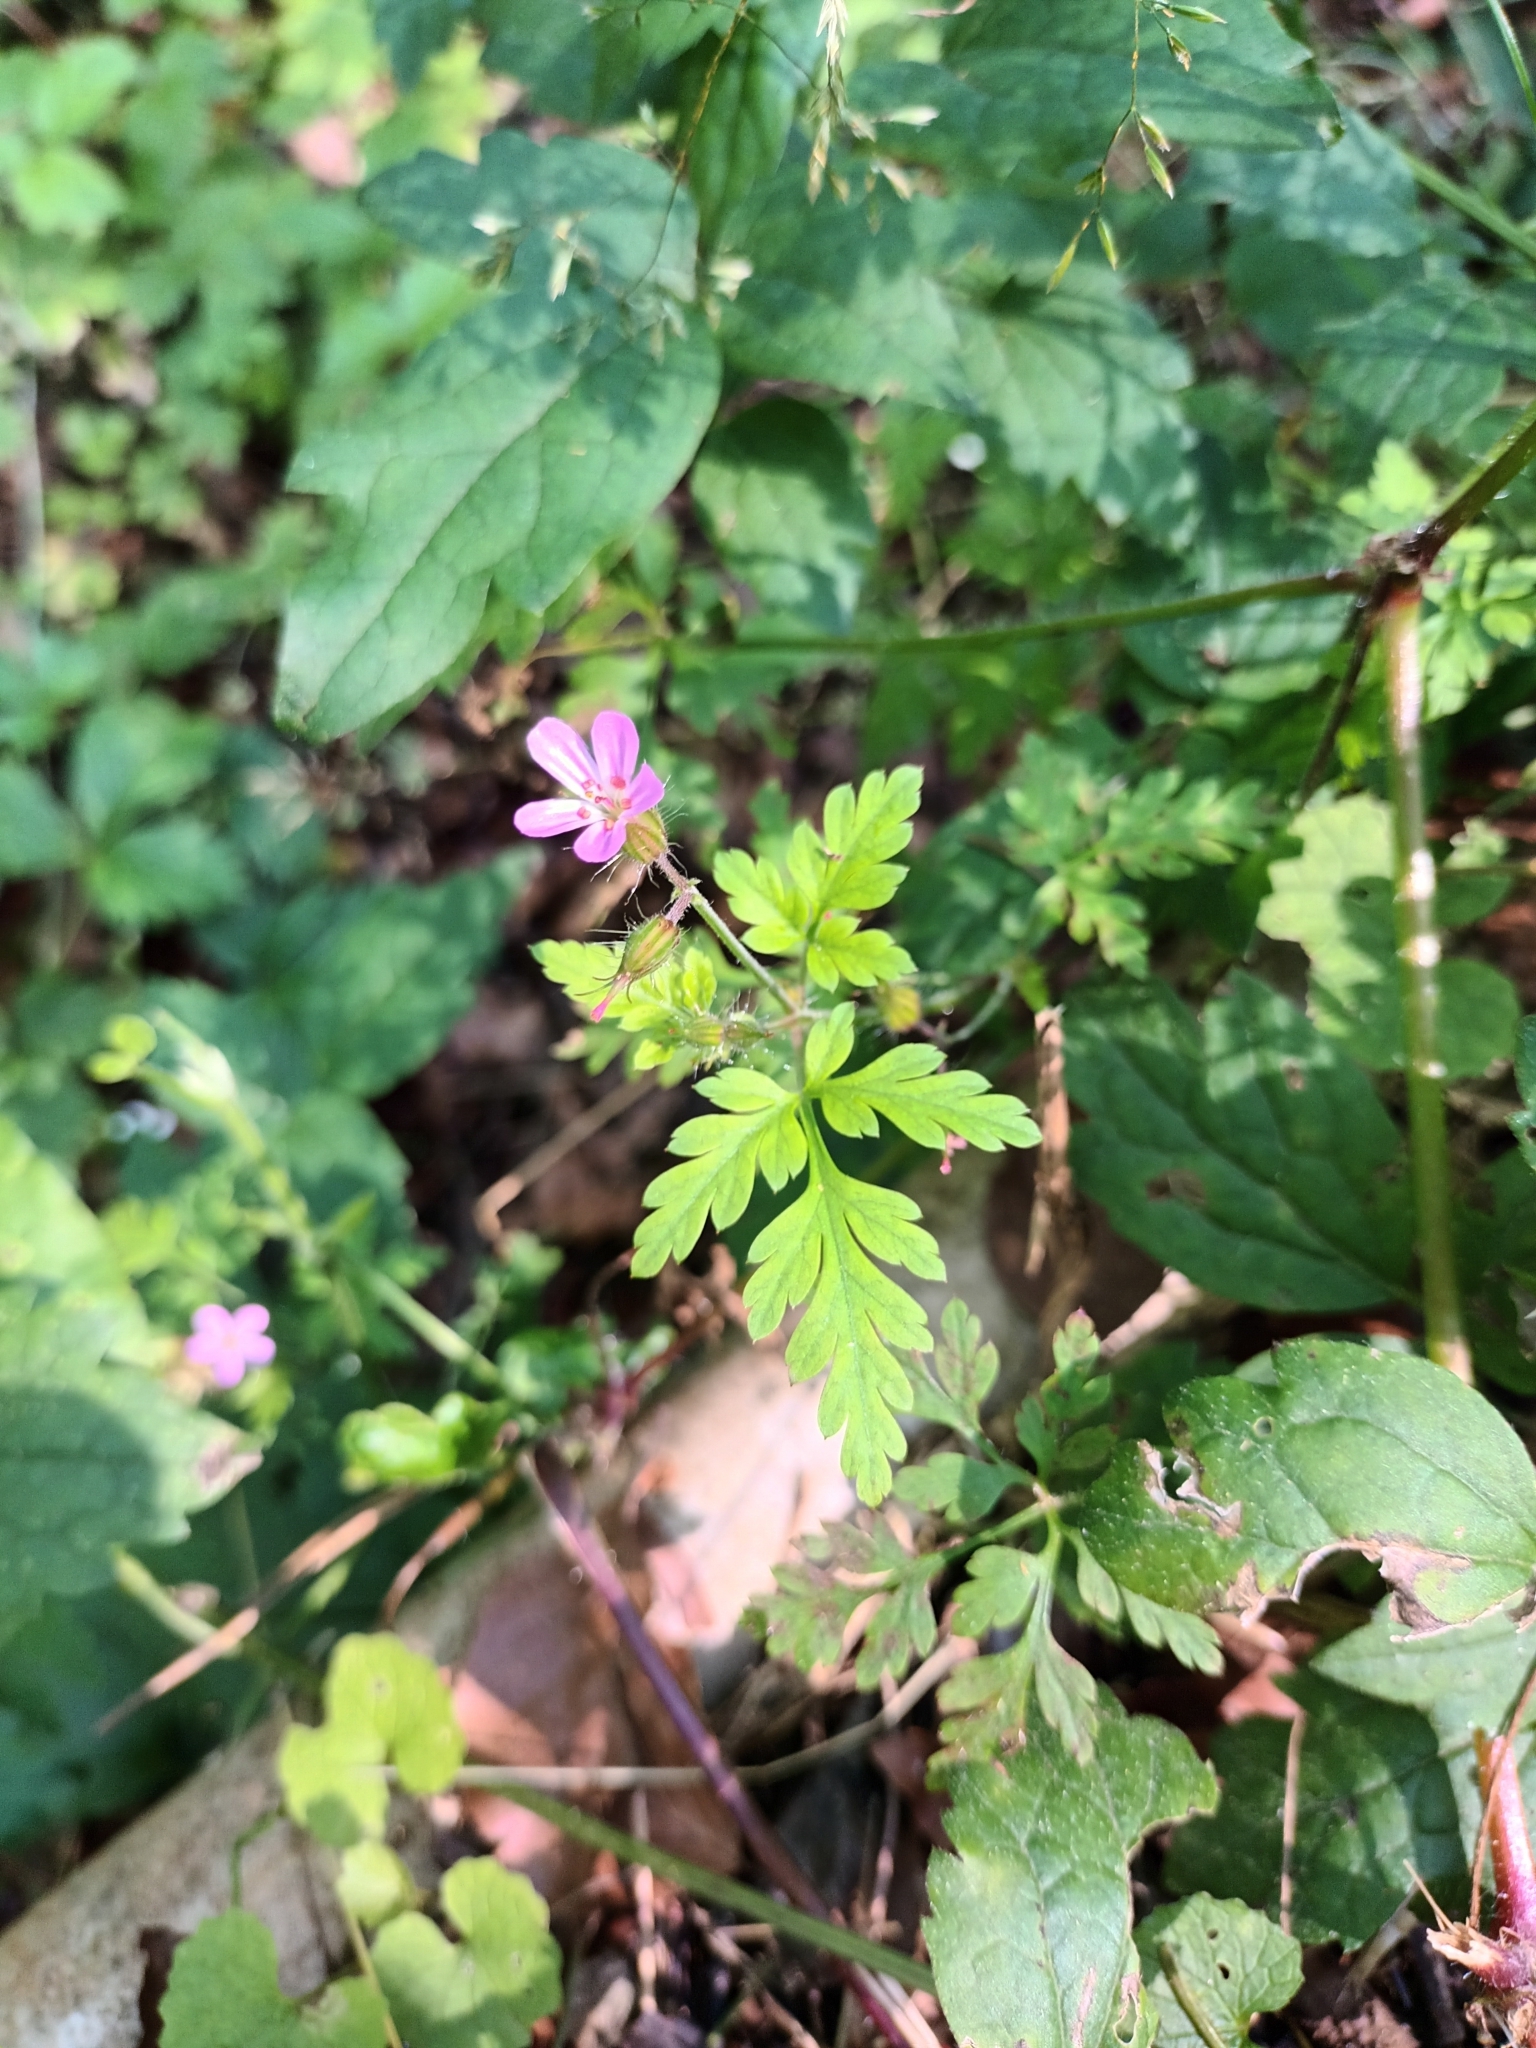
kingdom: Plantae
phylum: Tracheophyta
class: Magnoliopsida
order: Geraniales
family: Geraniaceae
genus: Geranium
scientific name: Geranium robertianum
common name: Herb-robert
